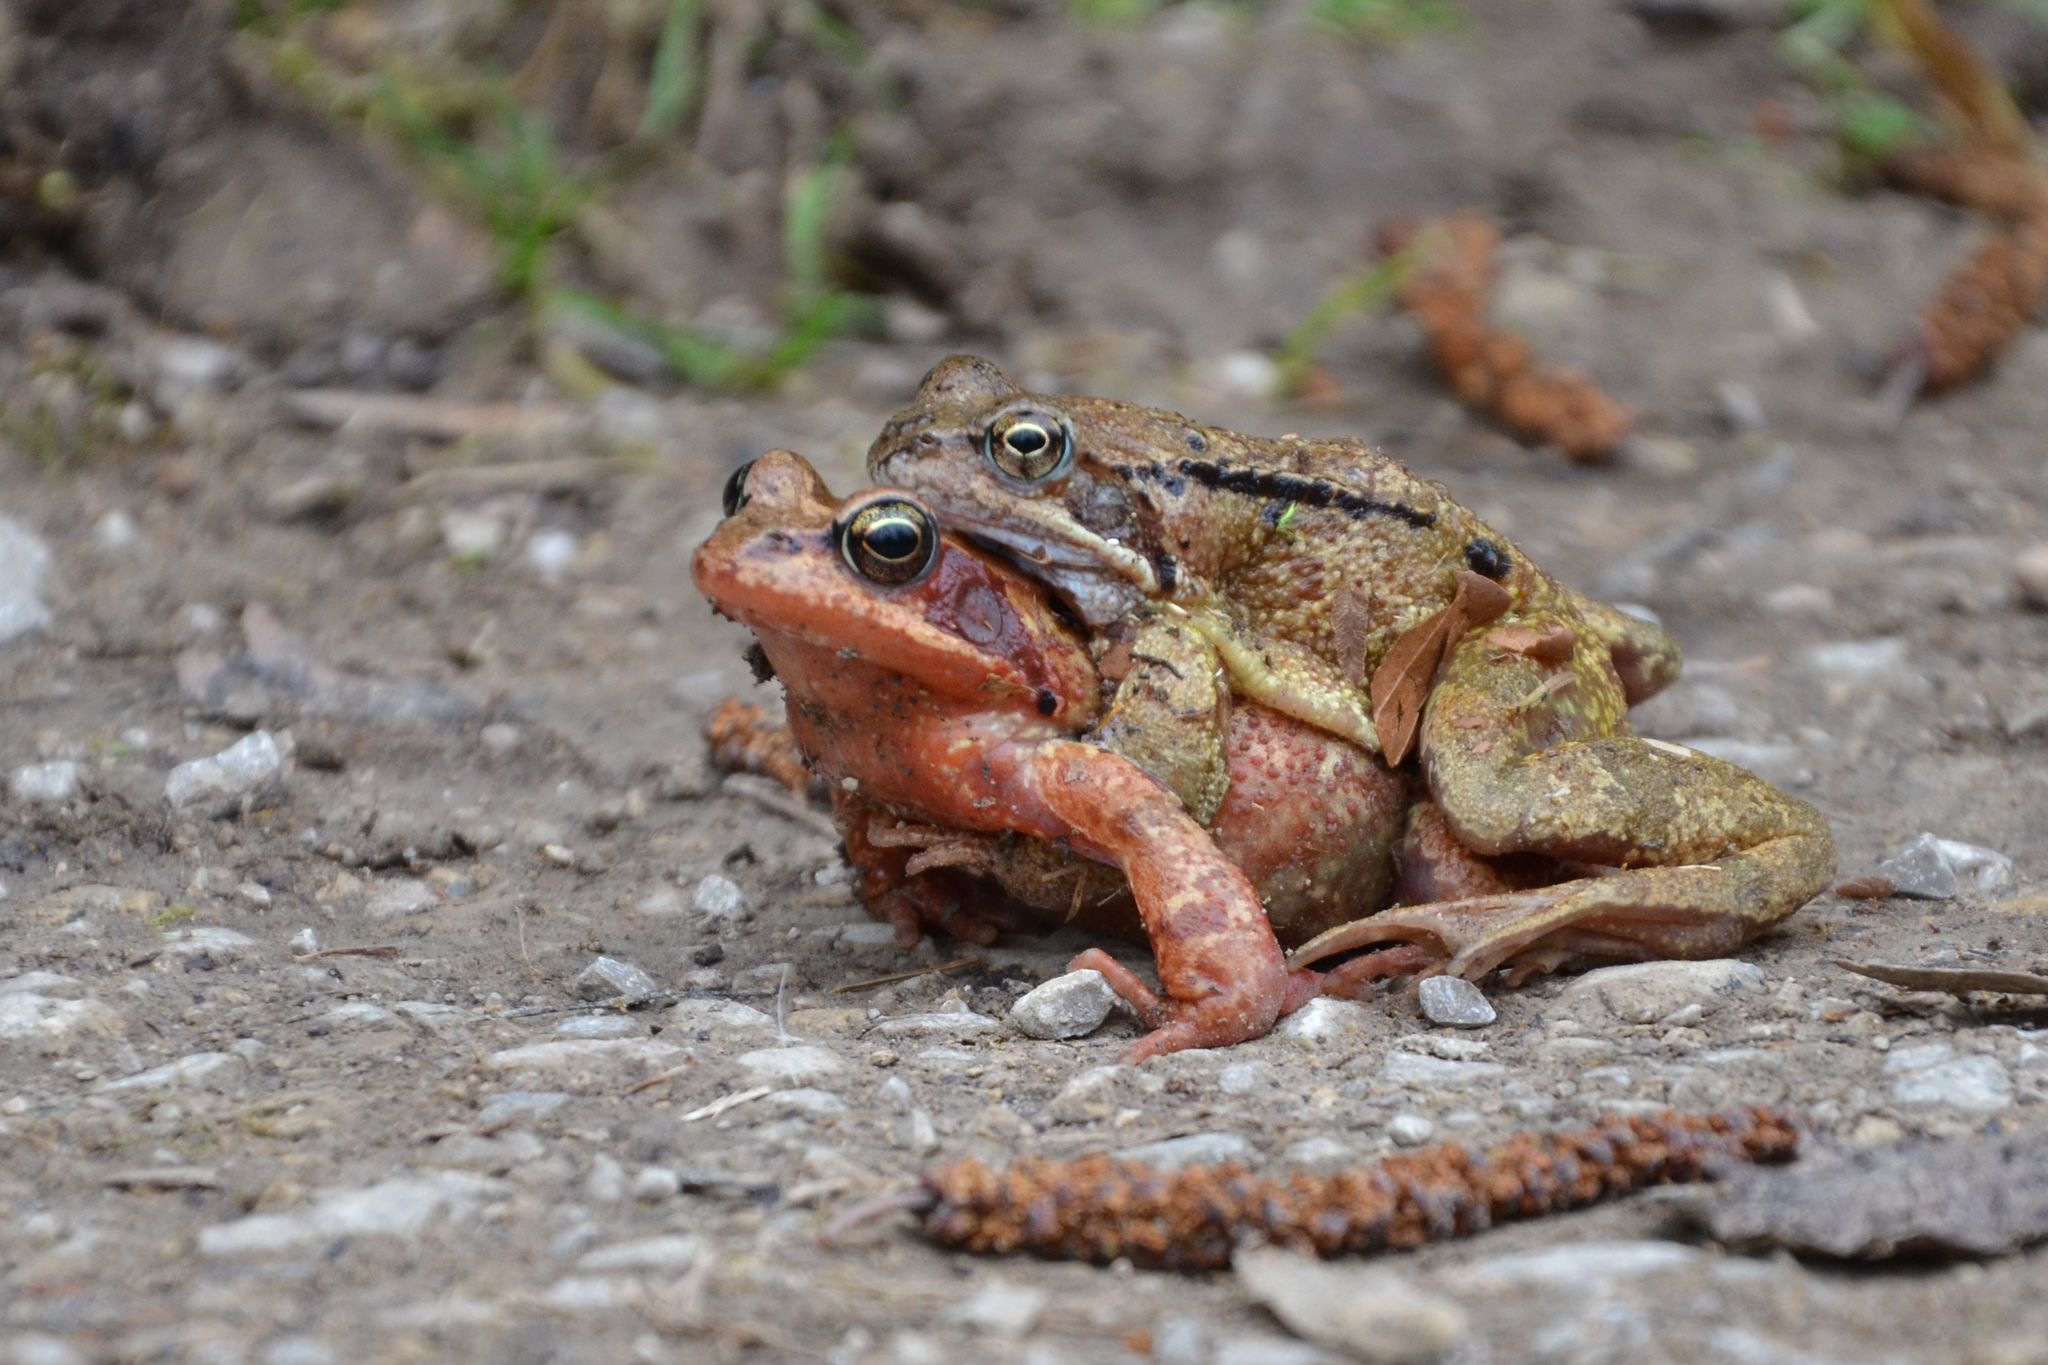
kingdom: Animalia
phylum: Chordata
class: Amphibia
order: Anura
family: Ranidae
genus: Rana
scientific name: Rana temporaria
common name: Common frog
